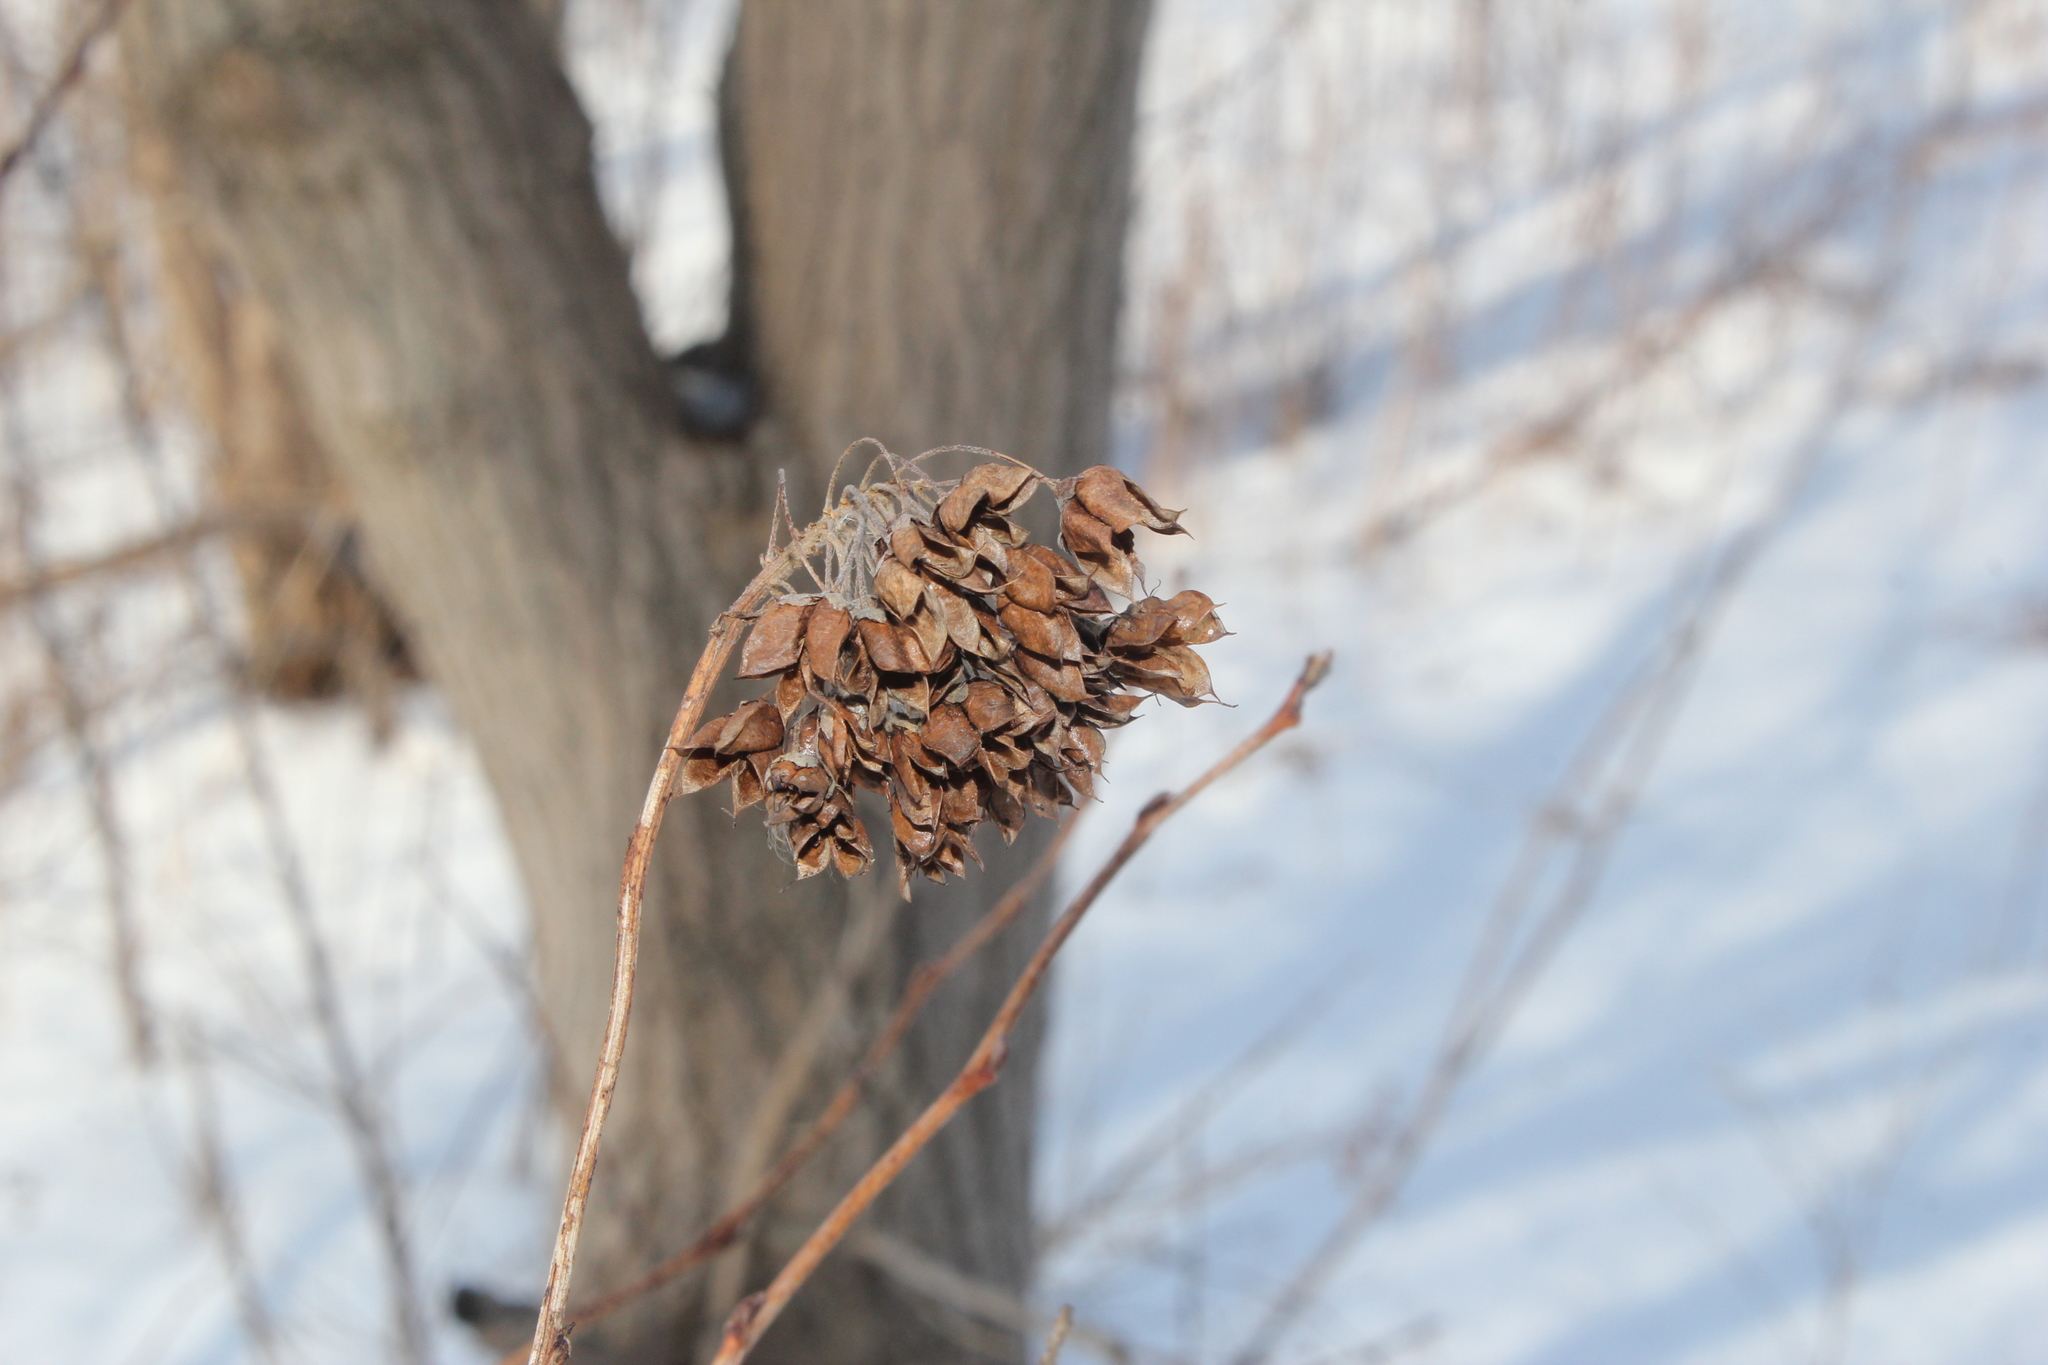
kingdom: Plantae
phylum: Tracheophyta
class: Magnoliopsida
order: Rosales
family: Rosaceae
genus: Physocarpus
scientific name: Physocarpus opulifolius
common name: Ninebark
